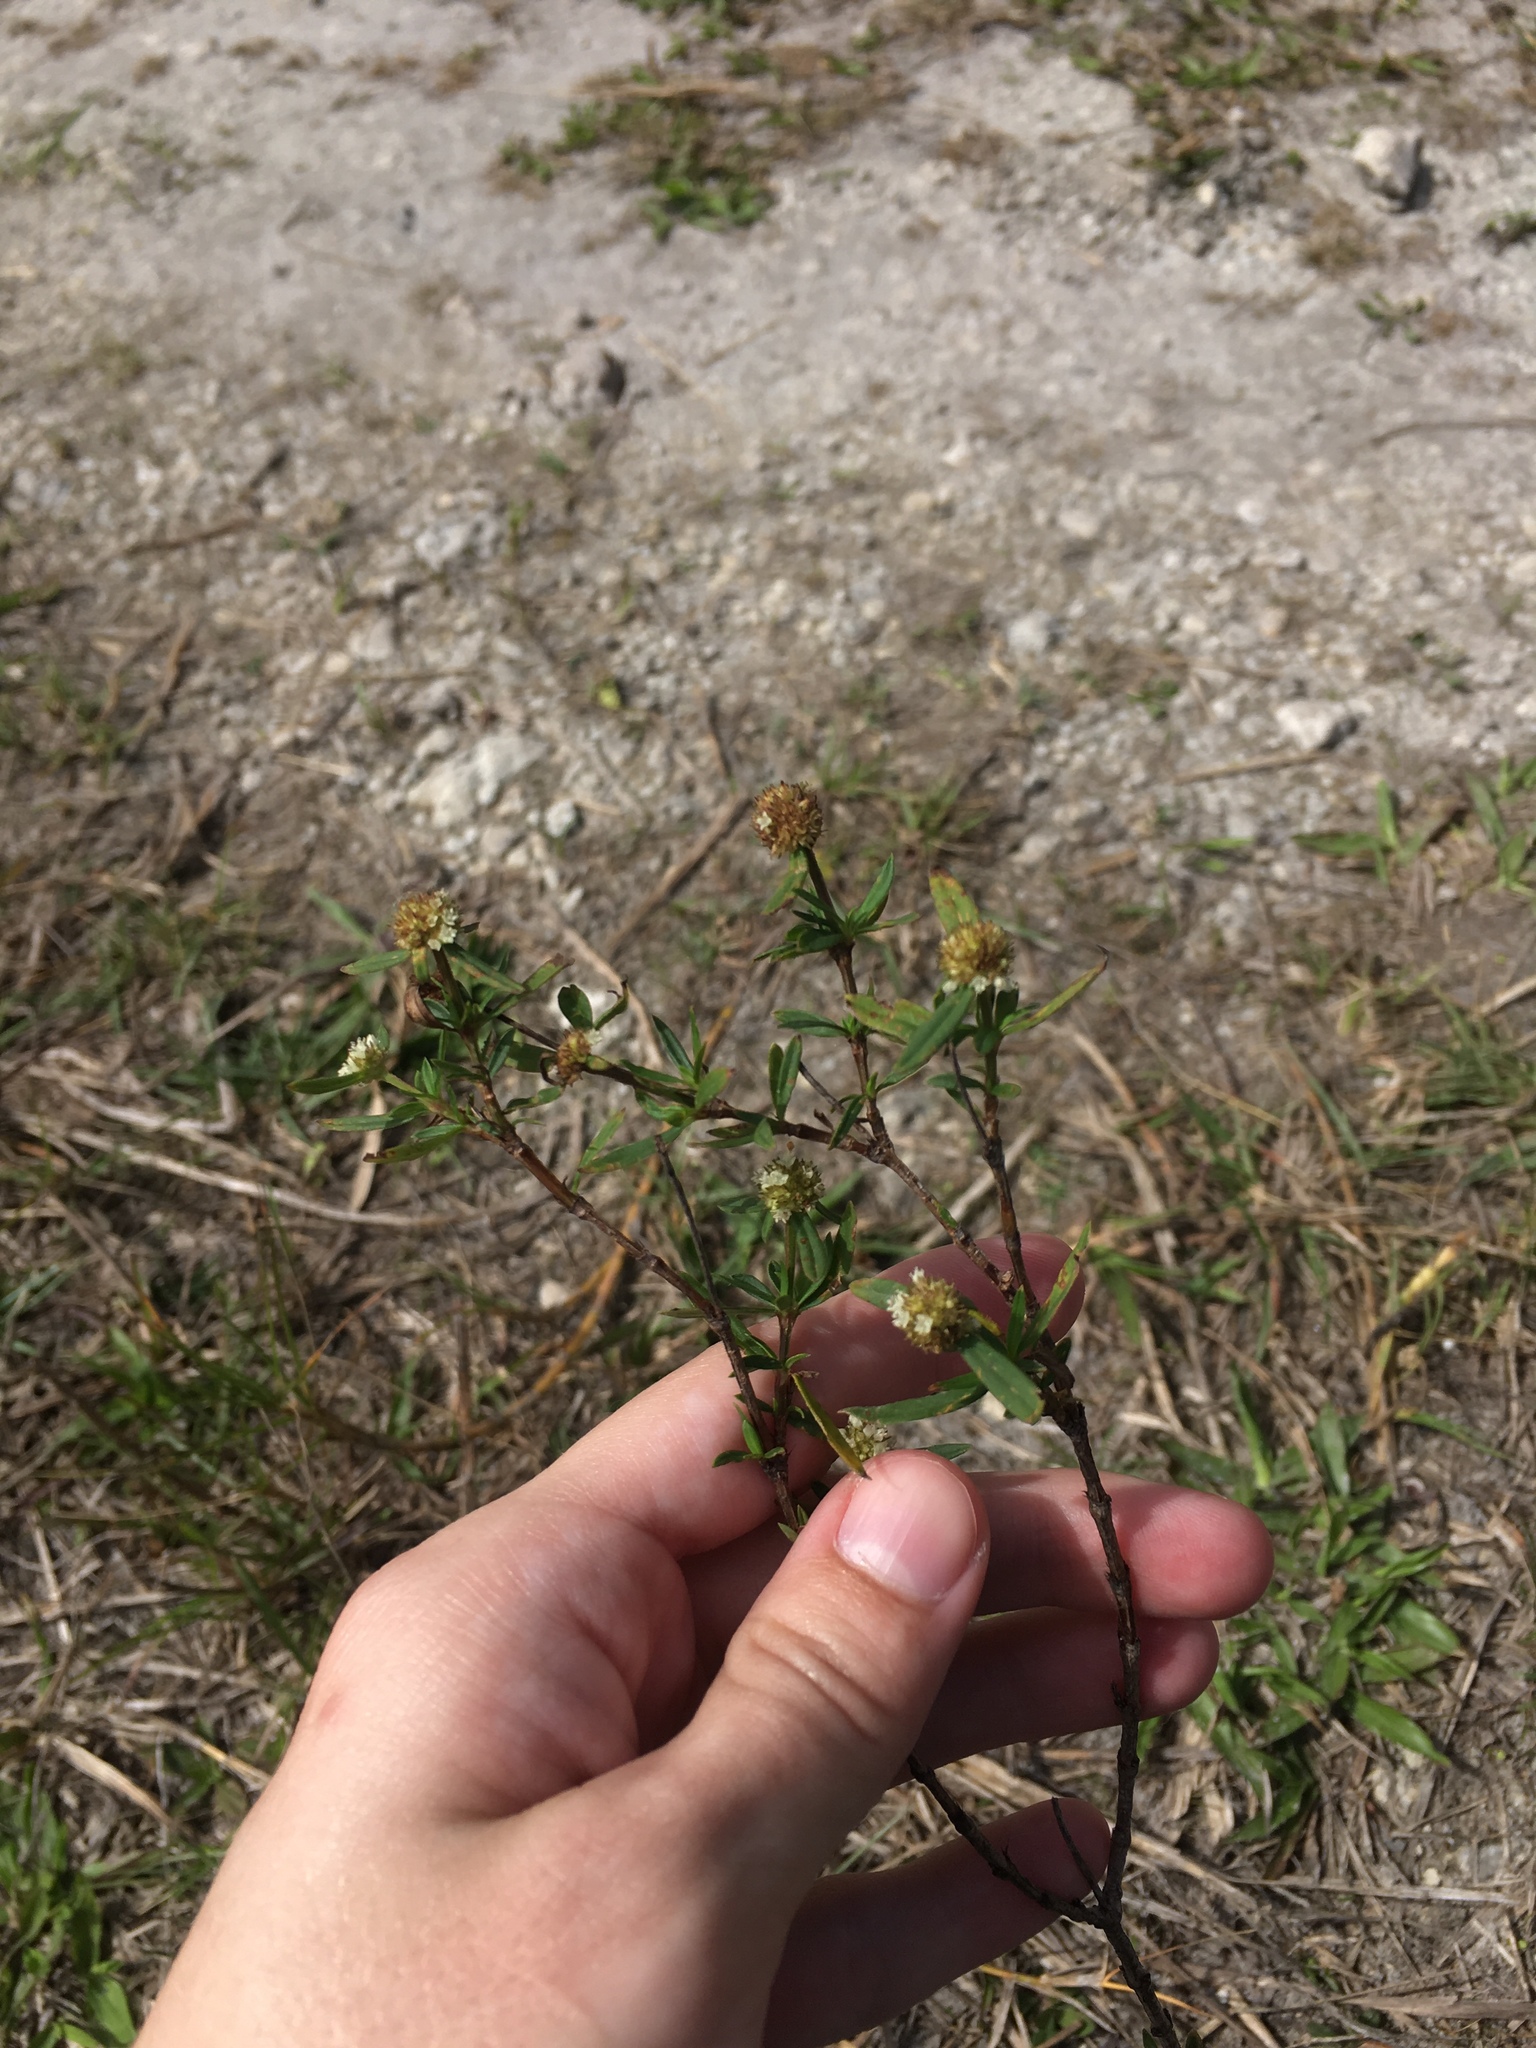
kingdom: Plantae
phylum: Tracheophyta
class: Magnoliopsida
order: Gentianales
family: Rubiaceae
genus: Spermacoce
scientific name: Spermacoce verticillata
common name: Shrubby false buttonweed
